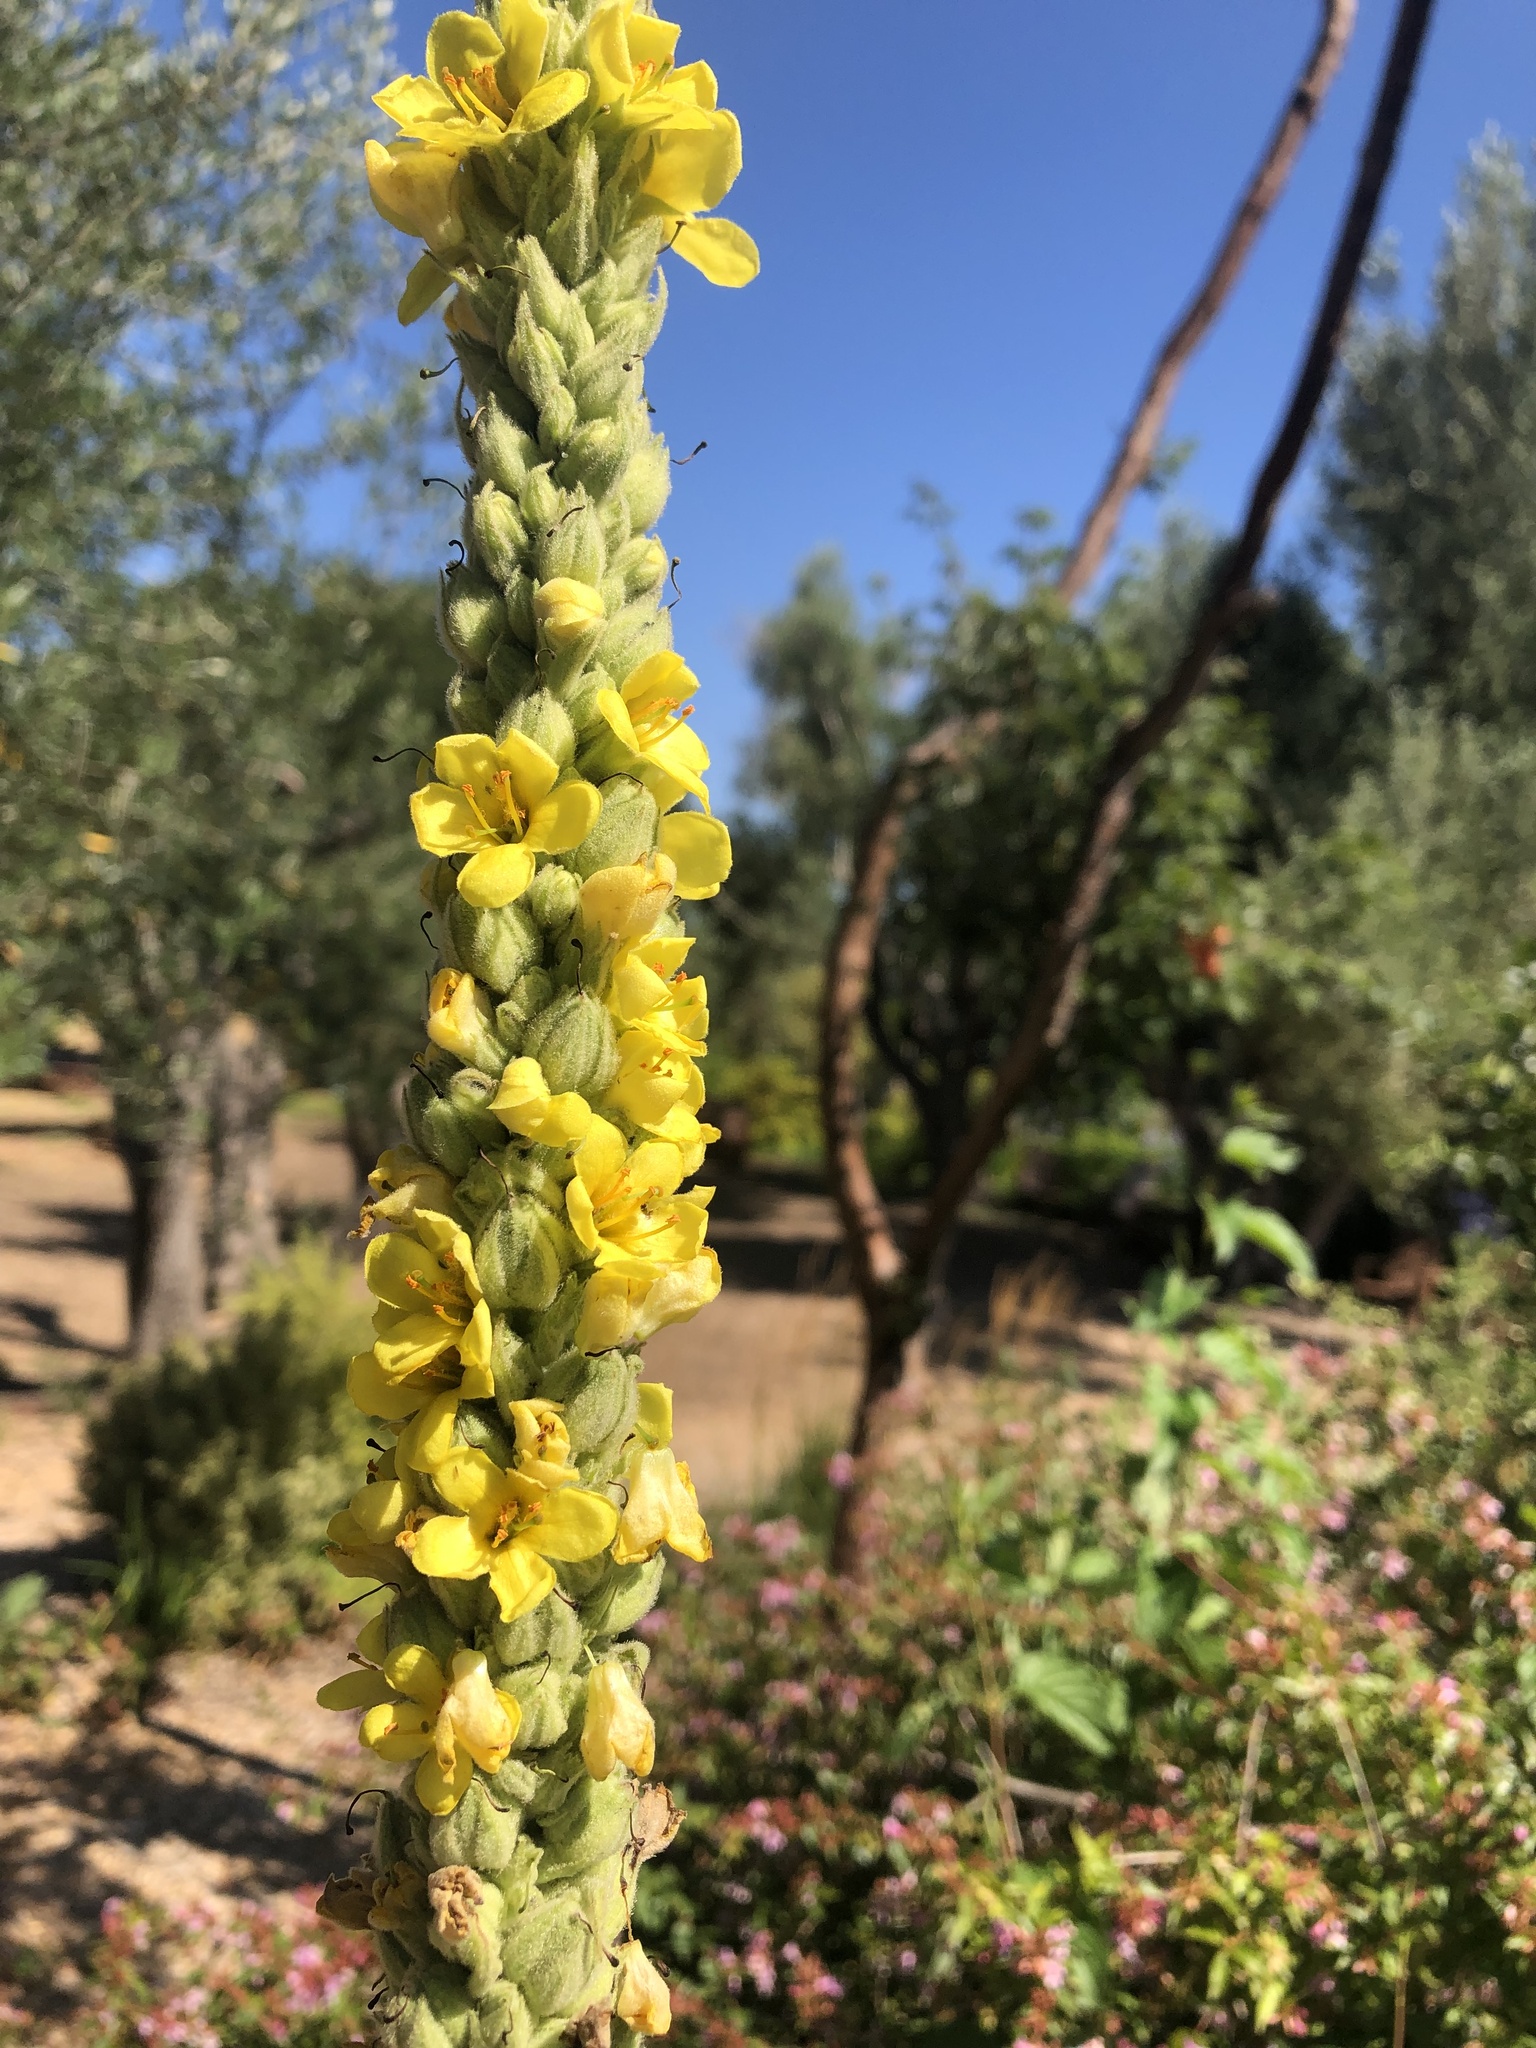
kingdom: Plantae
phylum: Tracheophyta
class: Magnoliopsida
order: Lamiales
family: Scrophulariaceae
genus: Verbascum
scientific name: Verbascum thapsus
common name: Common mullein
